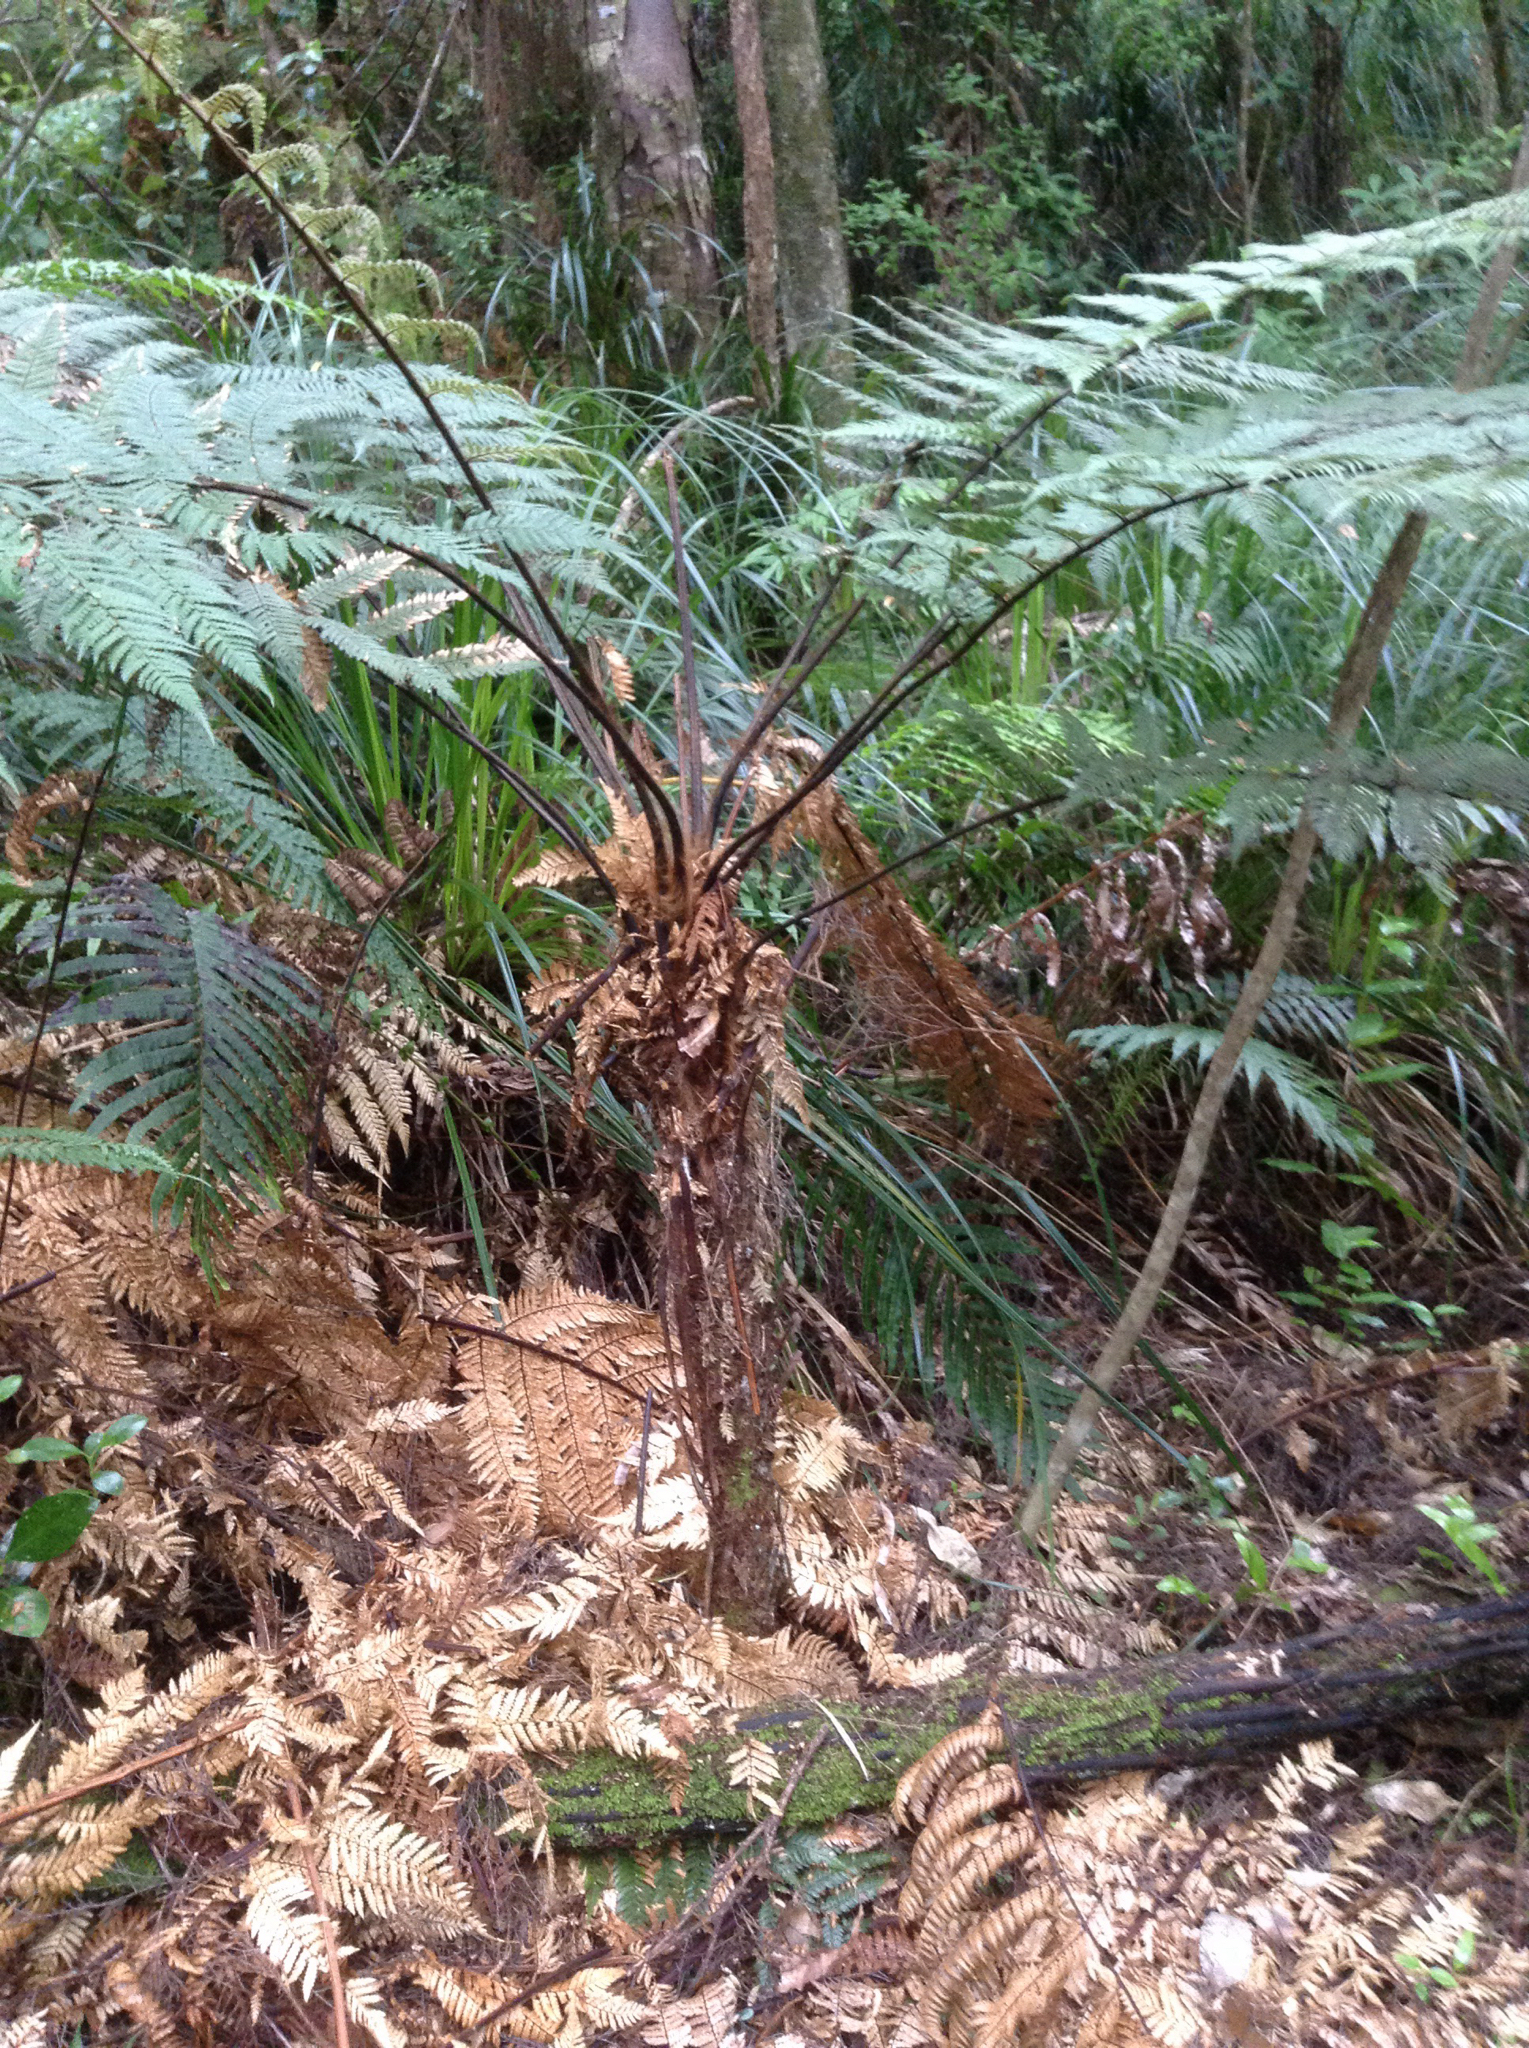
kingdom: Plantae
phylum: Tracheophyta
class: Polypodiopsida
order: Cyatheales
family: Dicksoniaceae
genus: Dicksonia
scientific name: Dicksonia squarrosa
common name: Hard treefern
